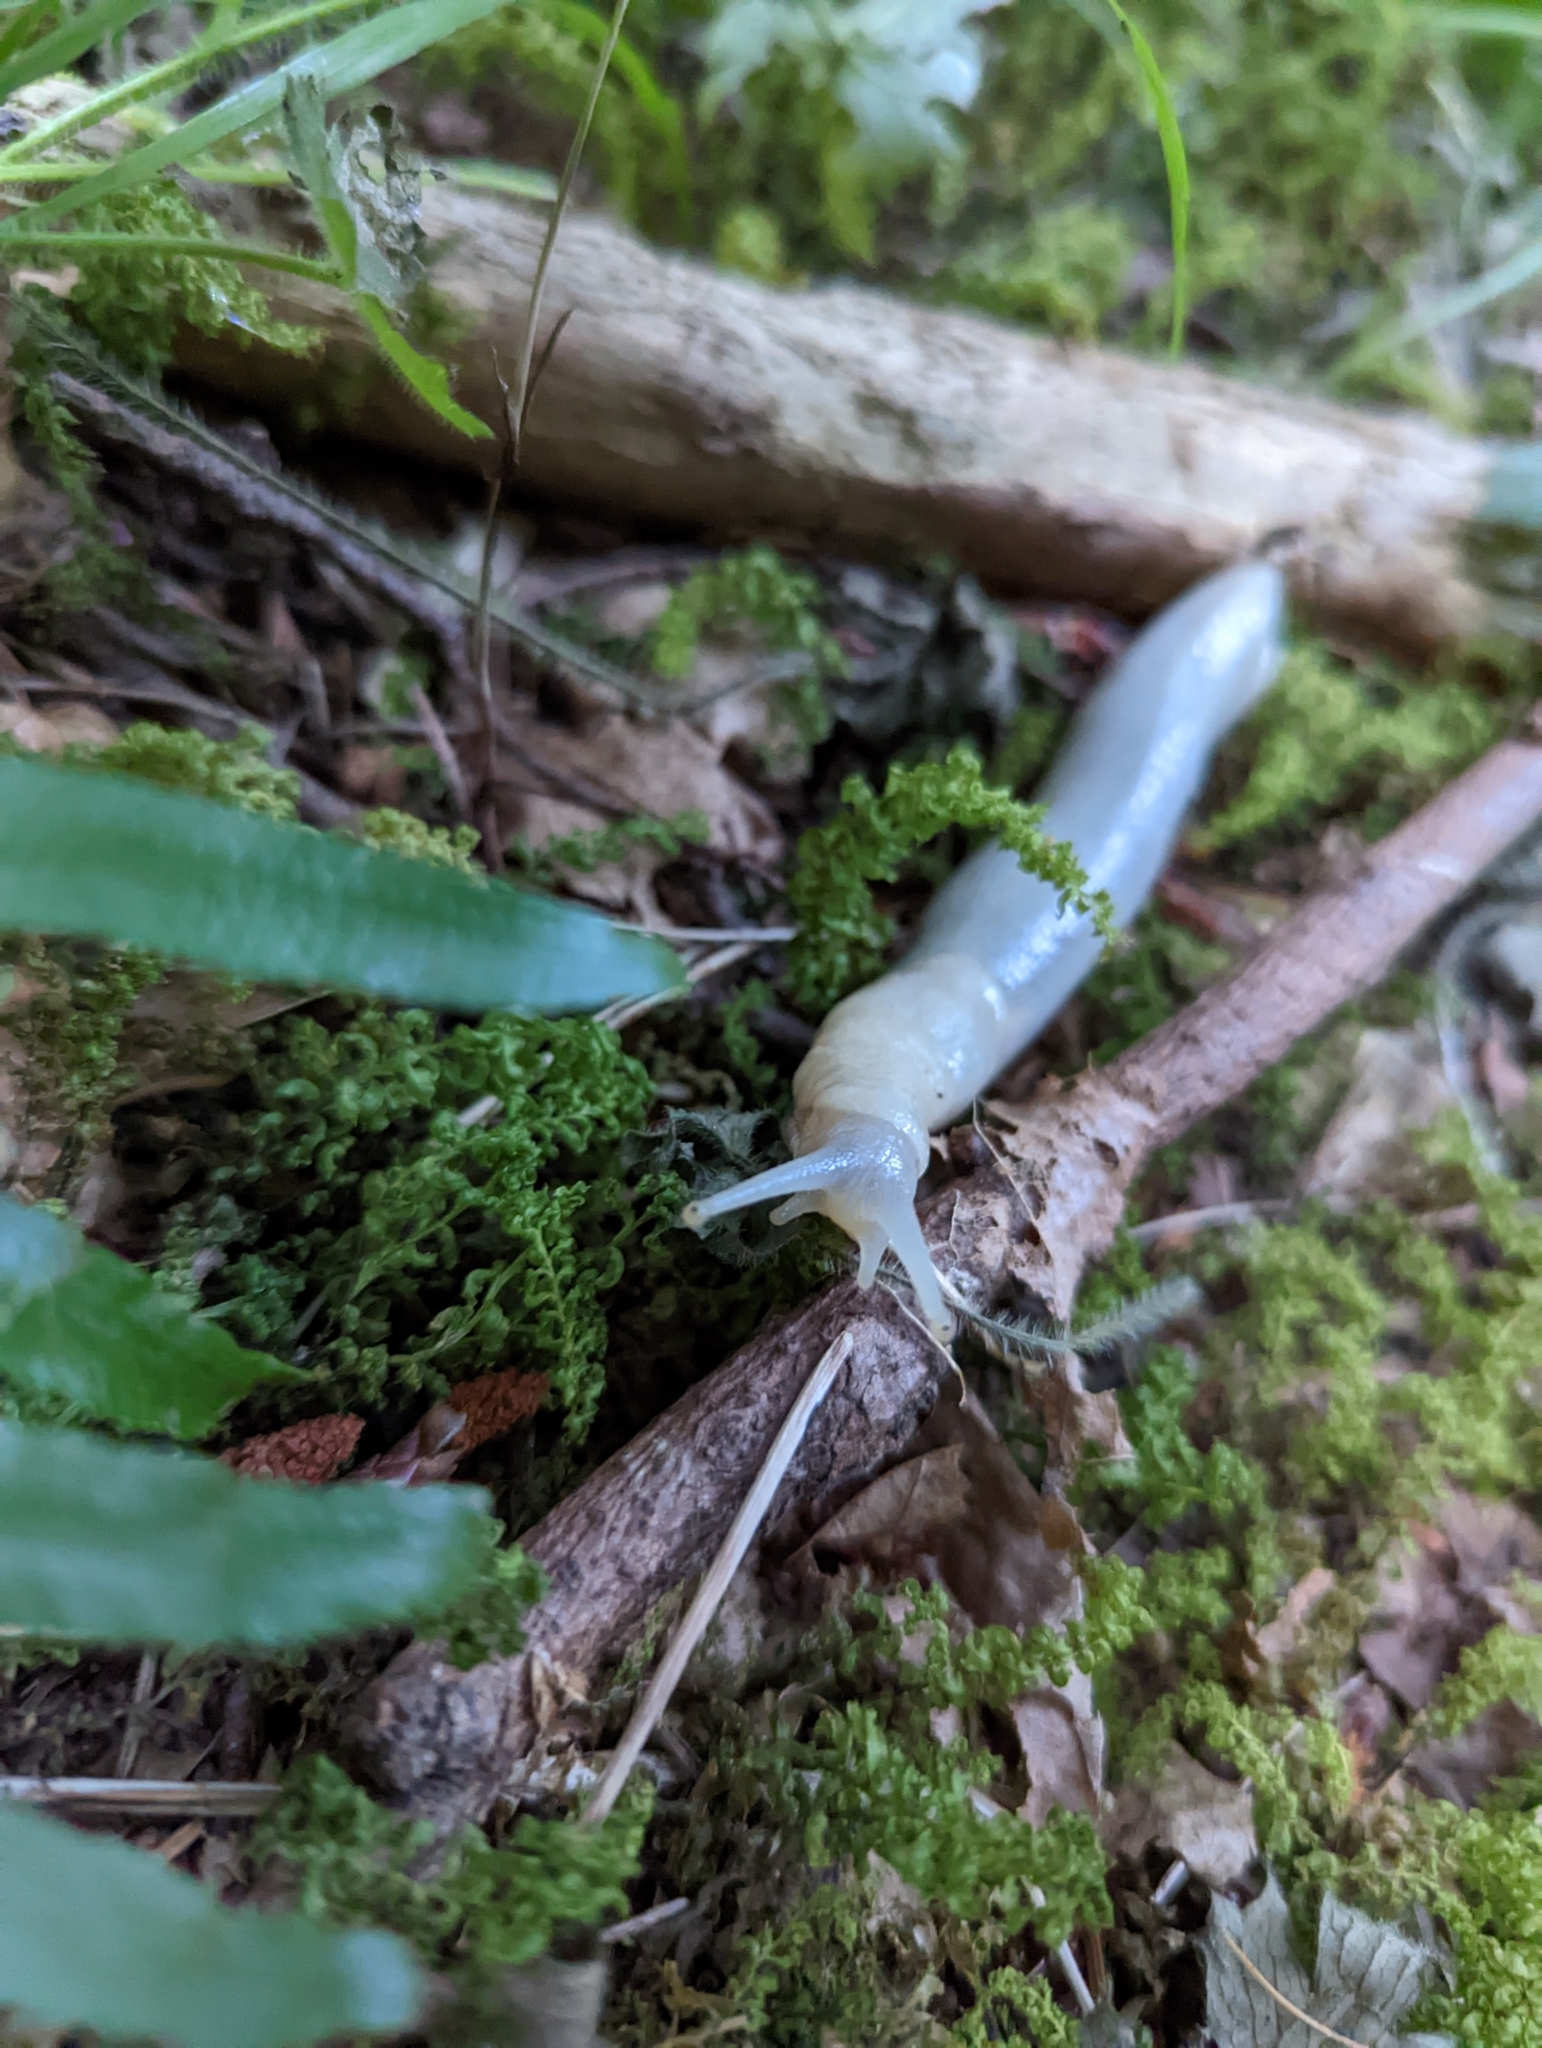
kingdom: Animalia
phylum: Mollusca
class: Gastropoda
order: Stylommatophora
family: Ariolimacidae
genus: Ariolimax
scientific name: Ariolimax columbianus
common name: Pacific banana slug
